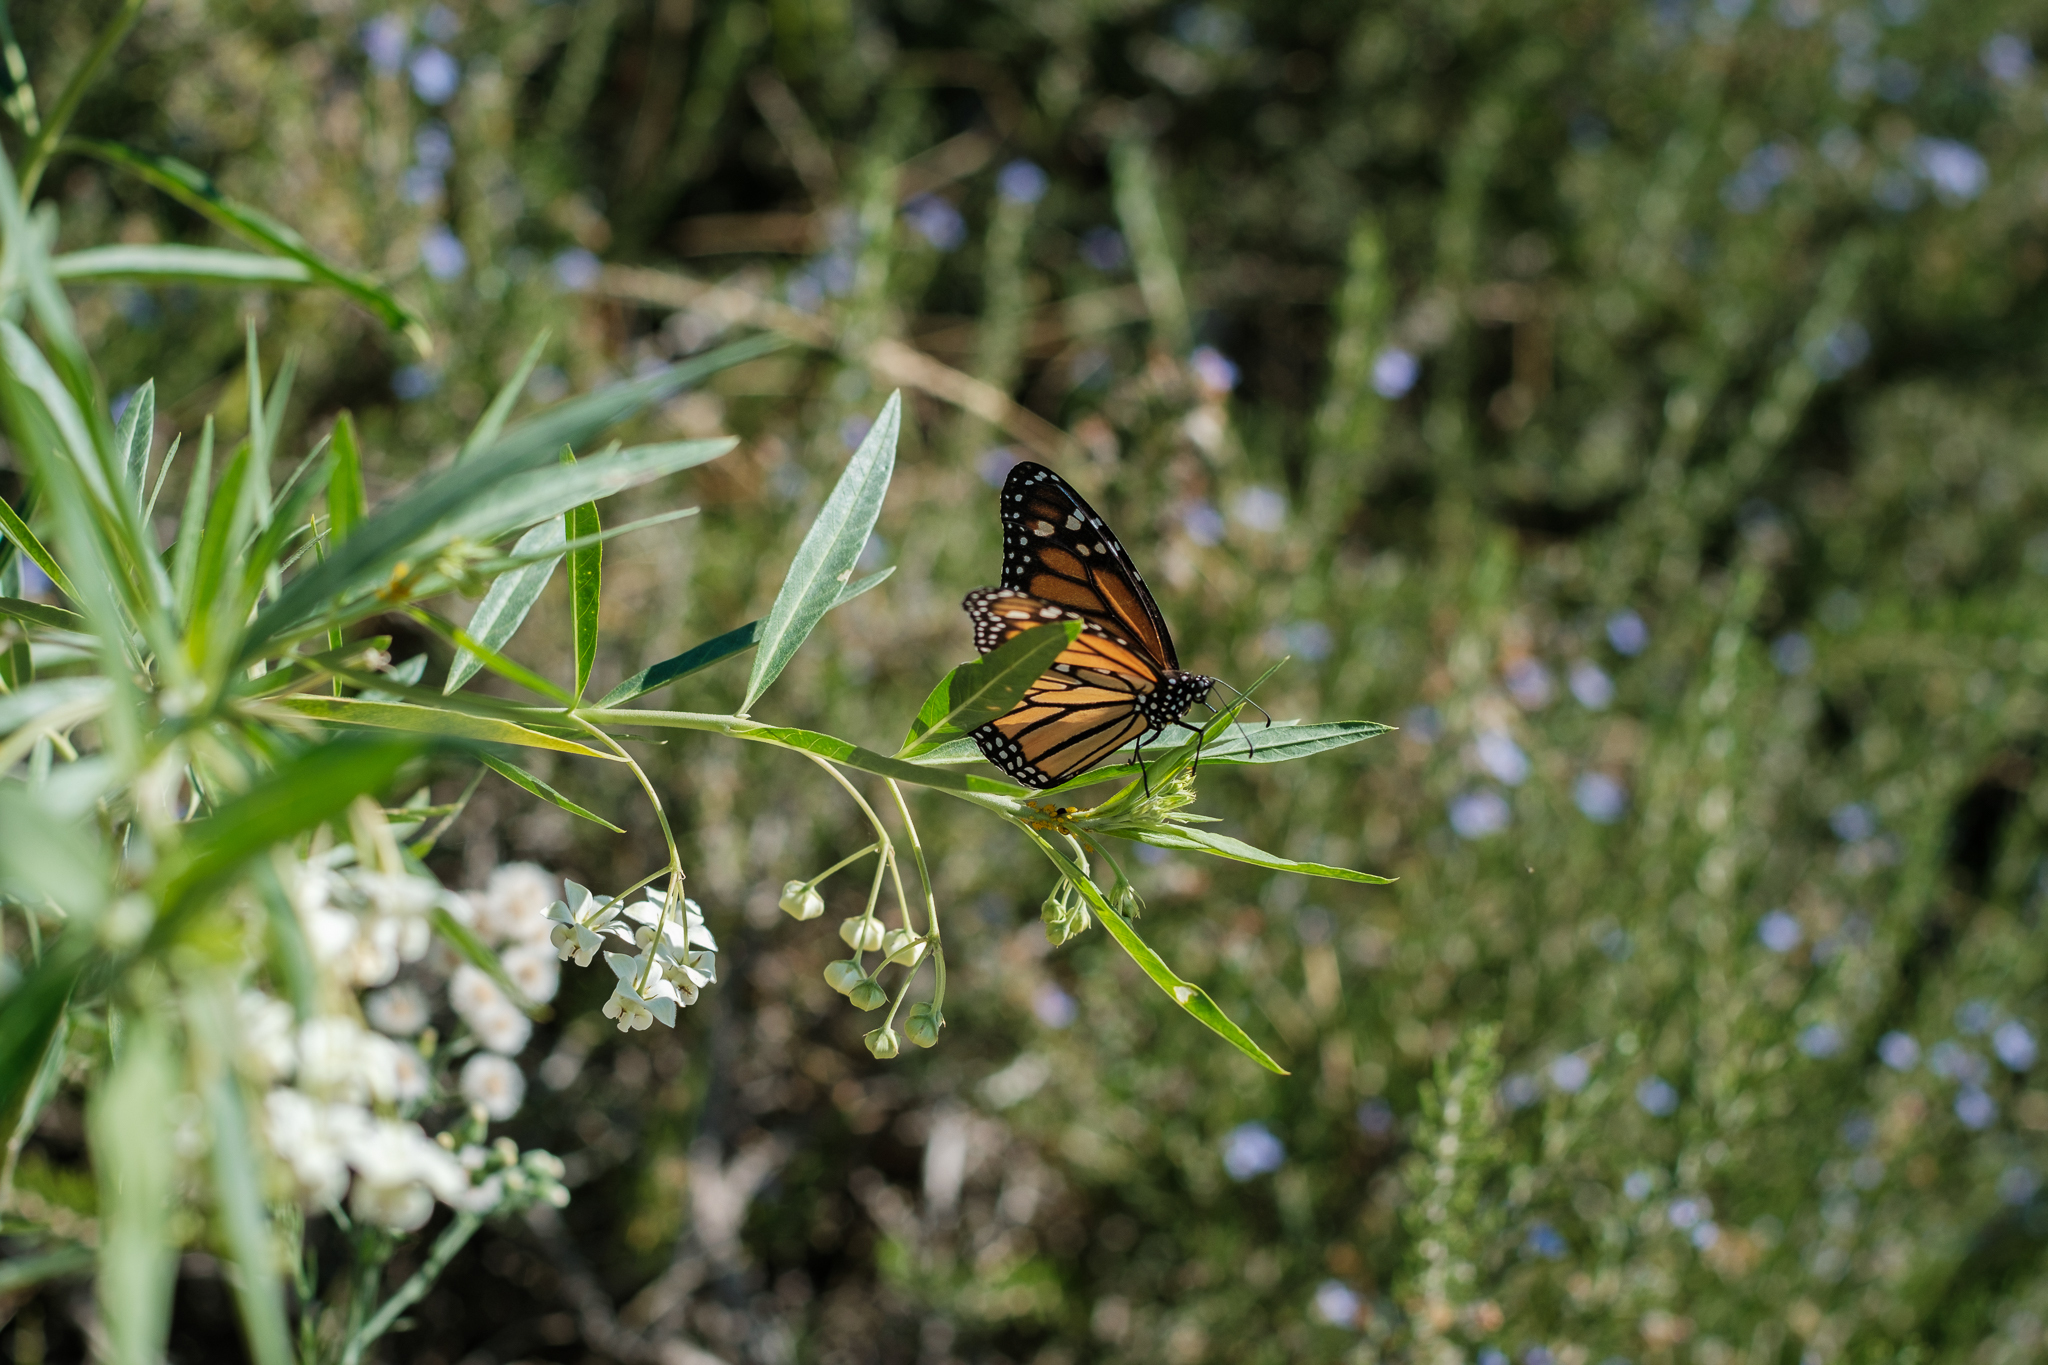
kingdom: Animalia
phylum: Arthropoda
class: Insecta
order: Lepidoptera
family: Nymphalidae
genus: Danaus
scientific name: Danaus plexippus
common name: Monarch
